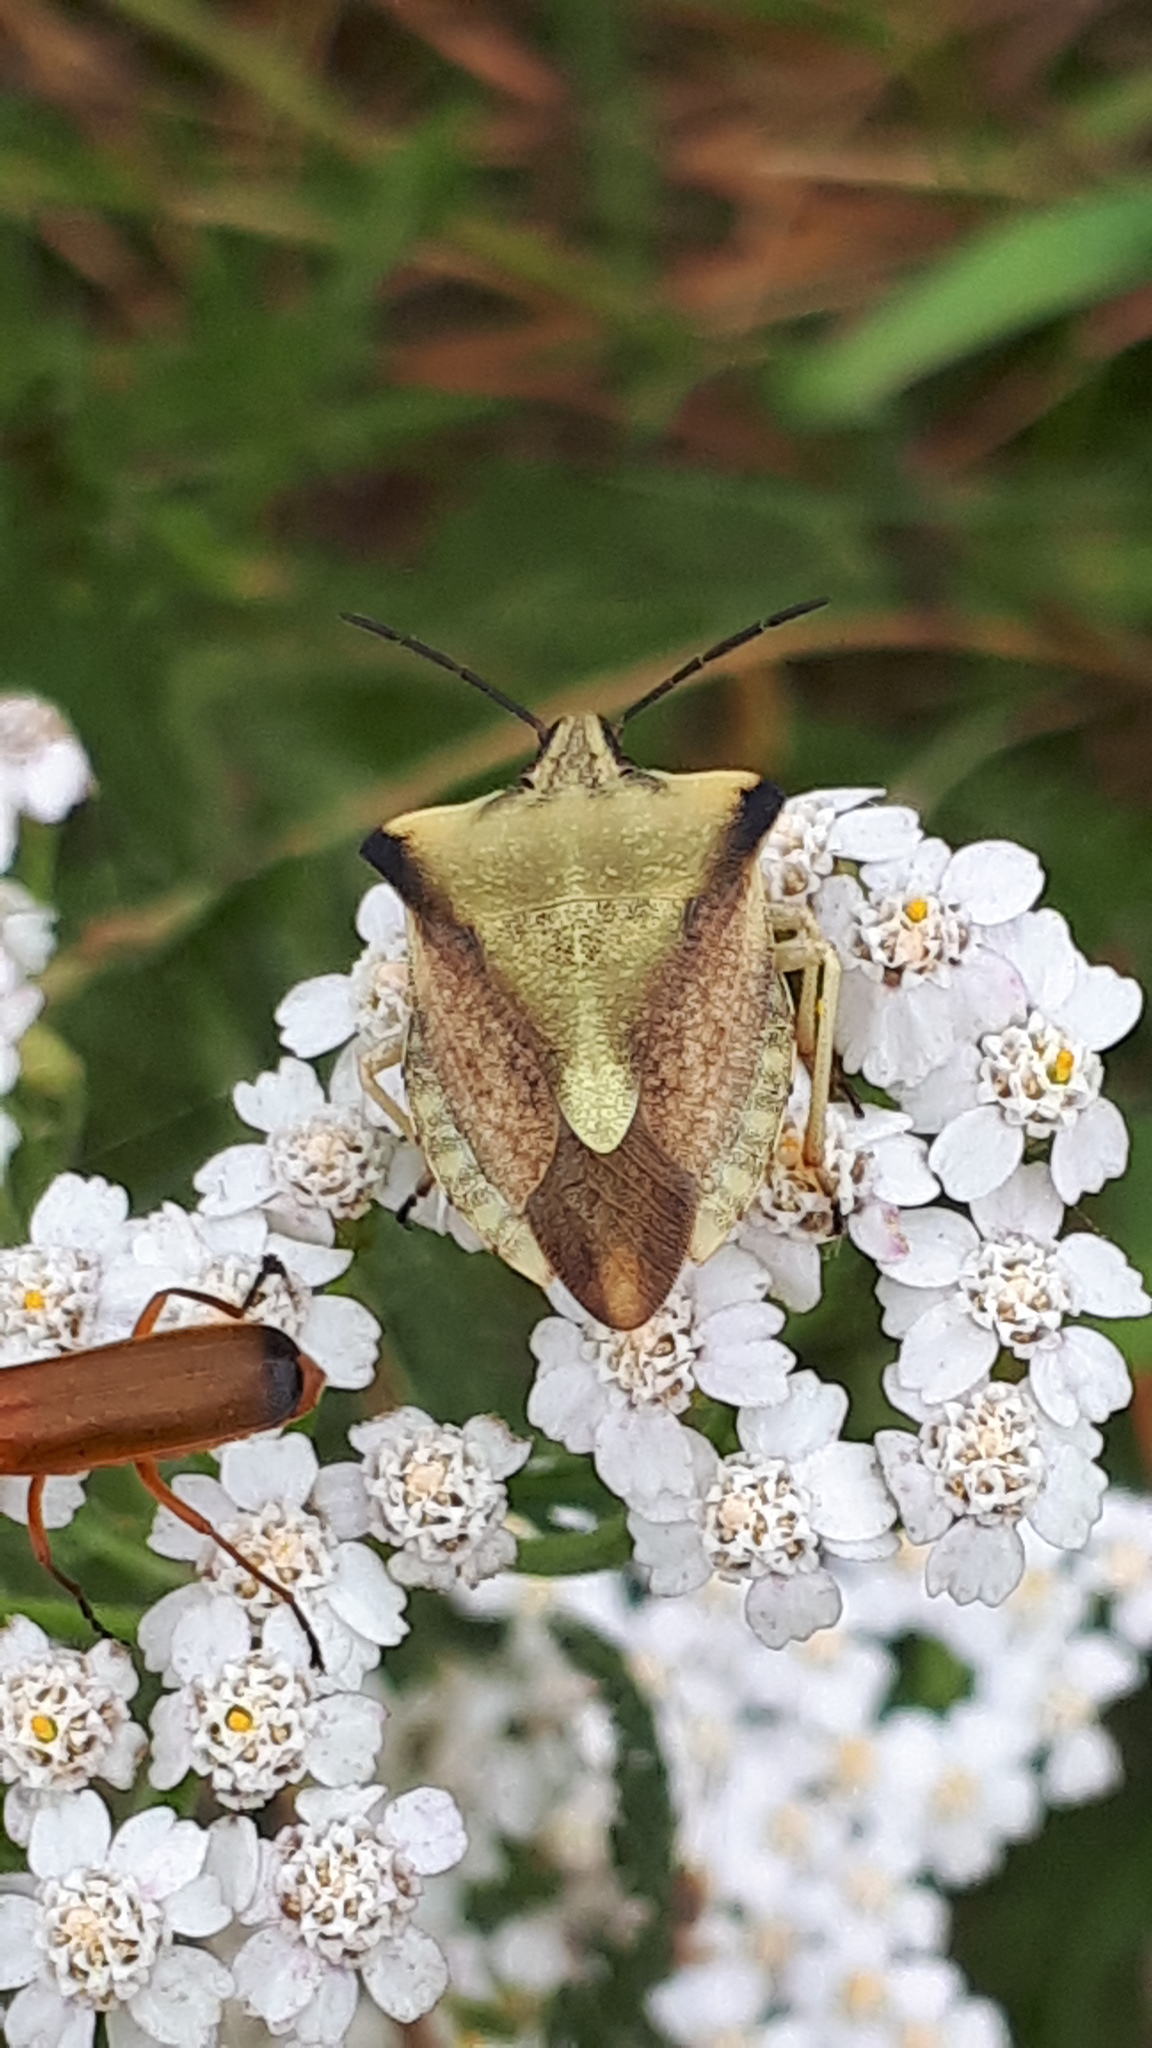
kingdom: Animalia
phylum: Arthropoda
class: Insecta
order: Hemiptera
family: Pentatomidae
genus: Carpocoris
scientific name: Carpocoris fuscispinus
